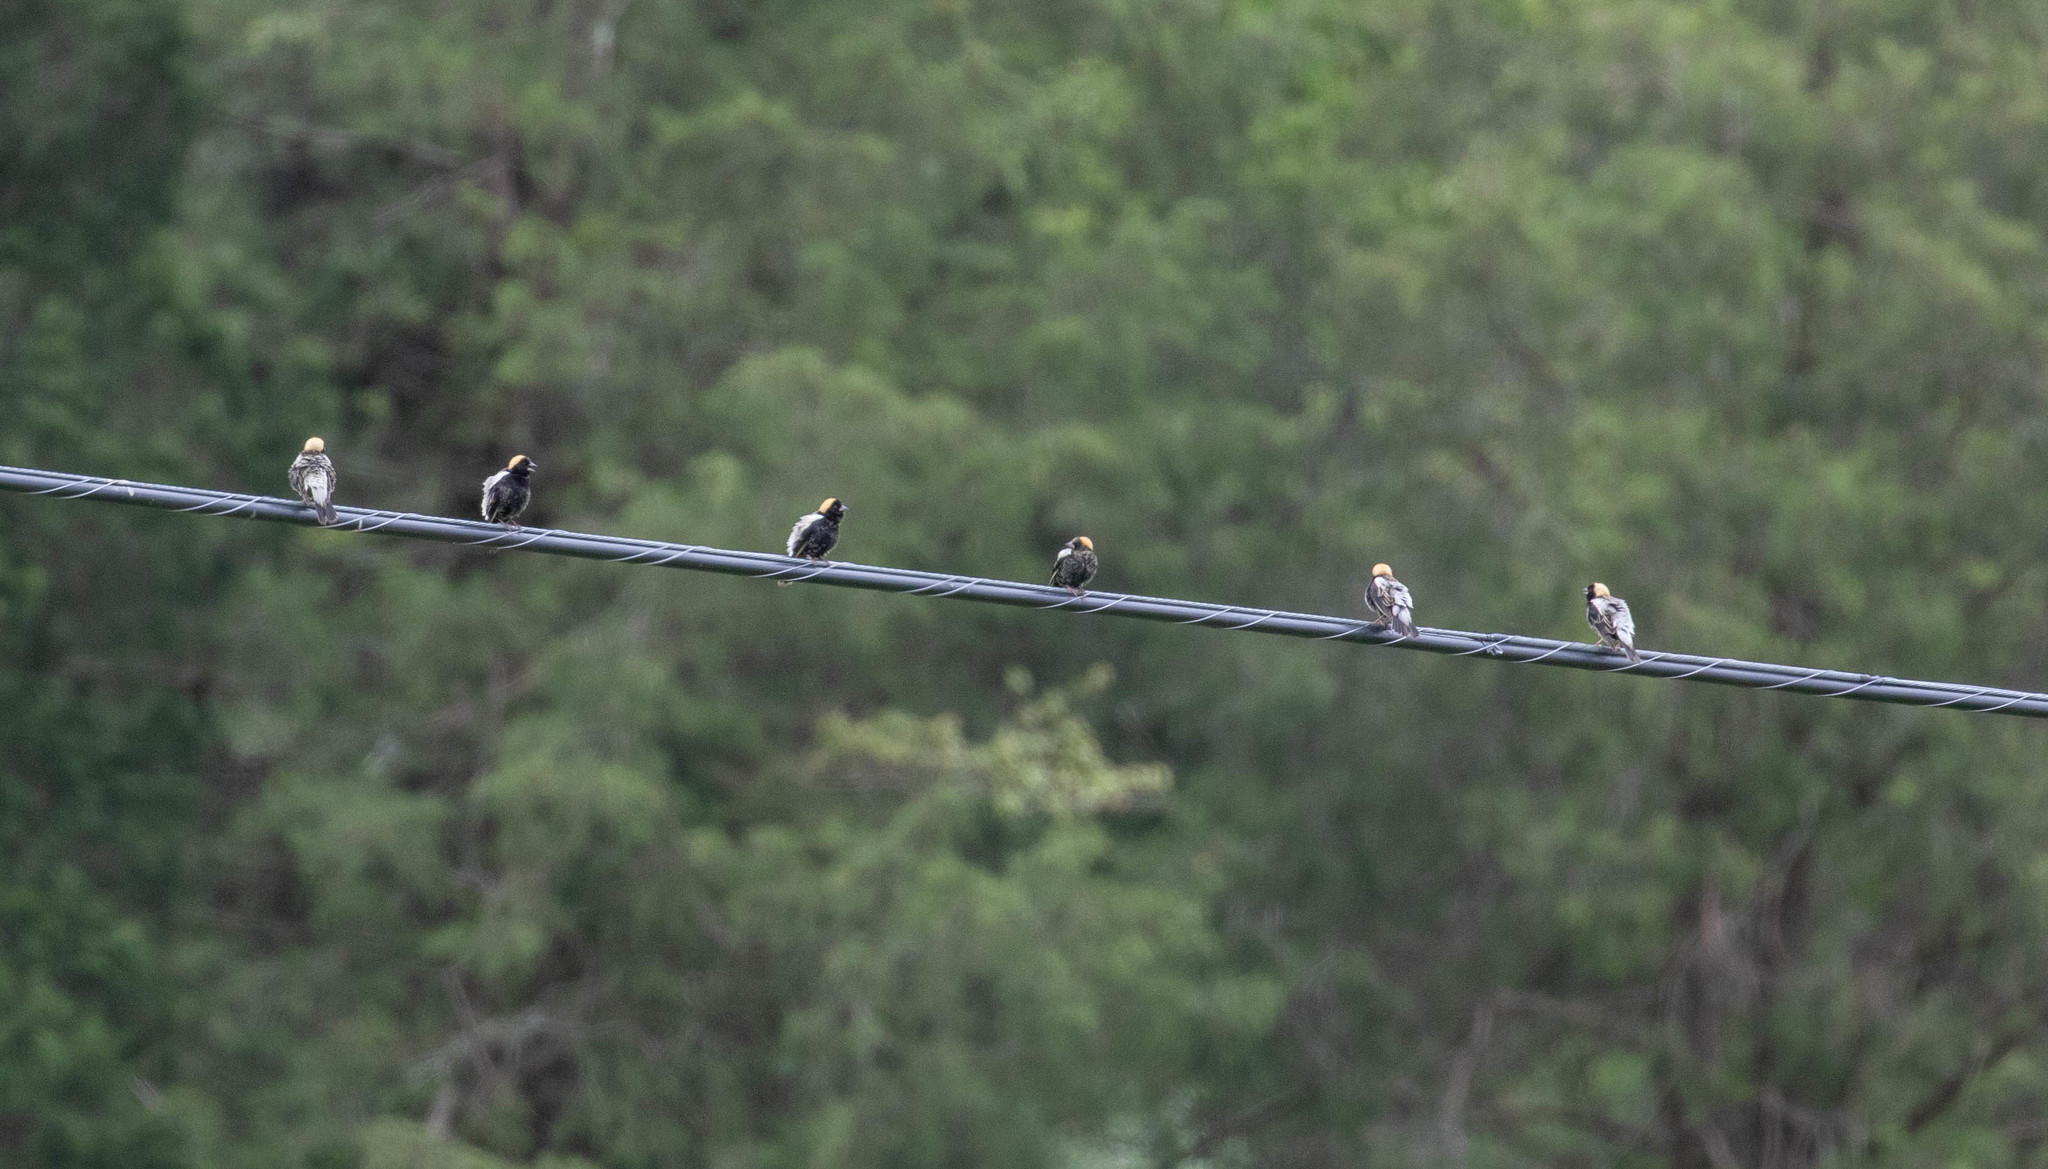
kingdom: Animalia
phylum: Chordata
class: Aves
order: Passeriformes
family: Icteridae
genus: Dolichonyx
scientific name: Dolichonyx oryzivorus
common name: Bobolink
